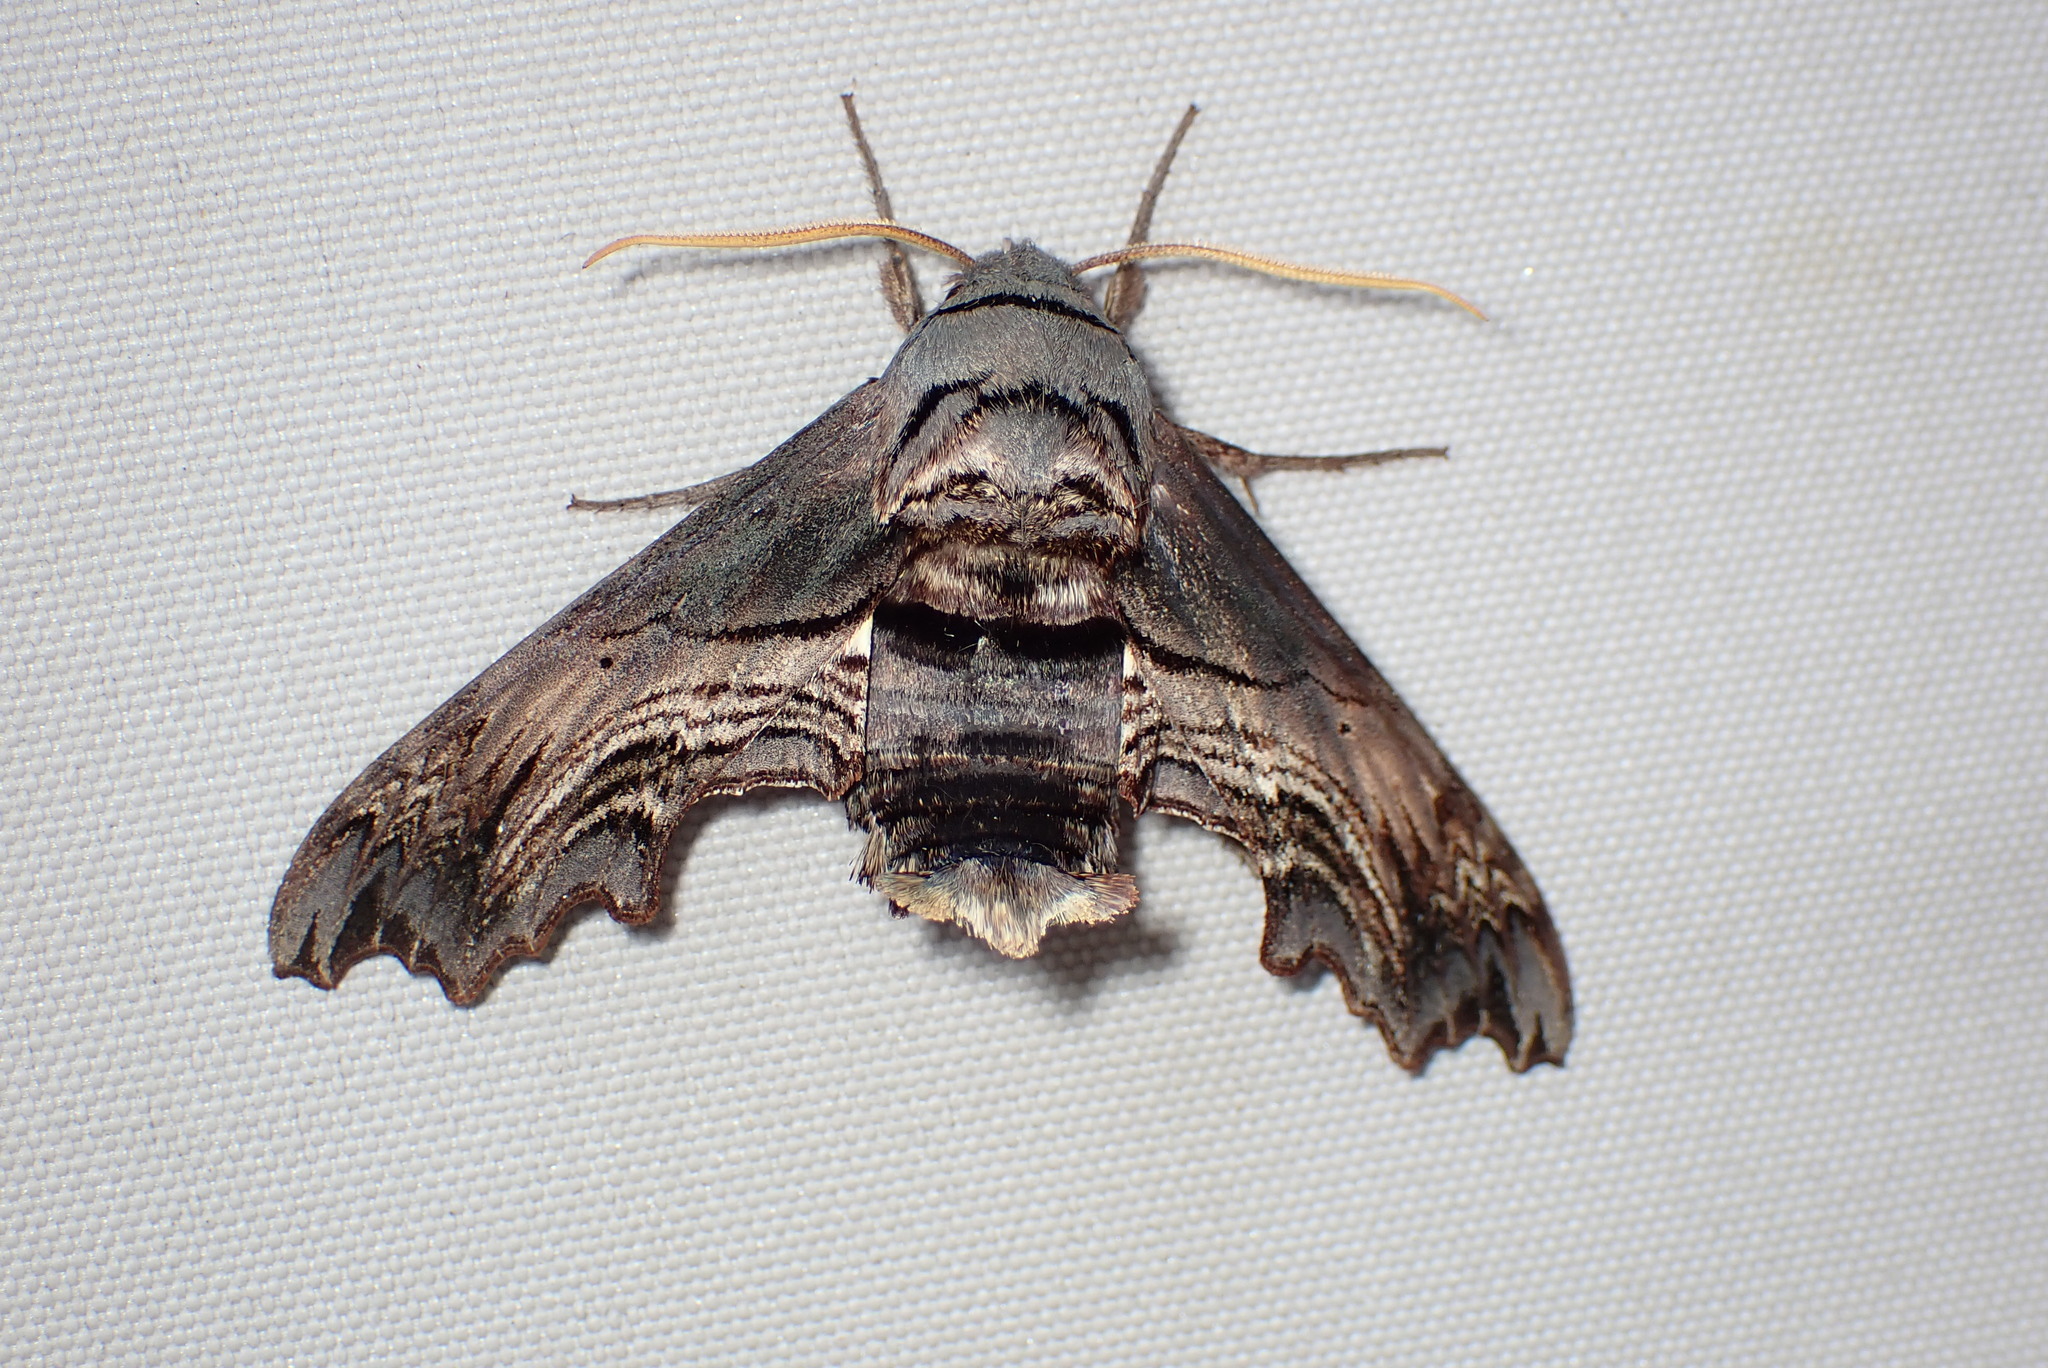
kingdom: Animalia
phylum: Arthropoda
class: Insecta
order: Lepidoptera
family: Sphingidae
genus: Sphecodina
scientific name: Sphecodina abbottii
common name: Abbott's sphinx
